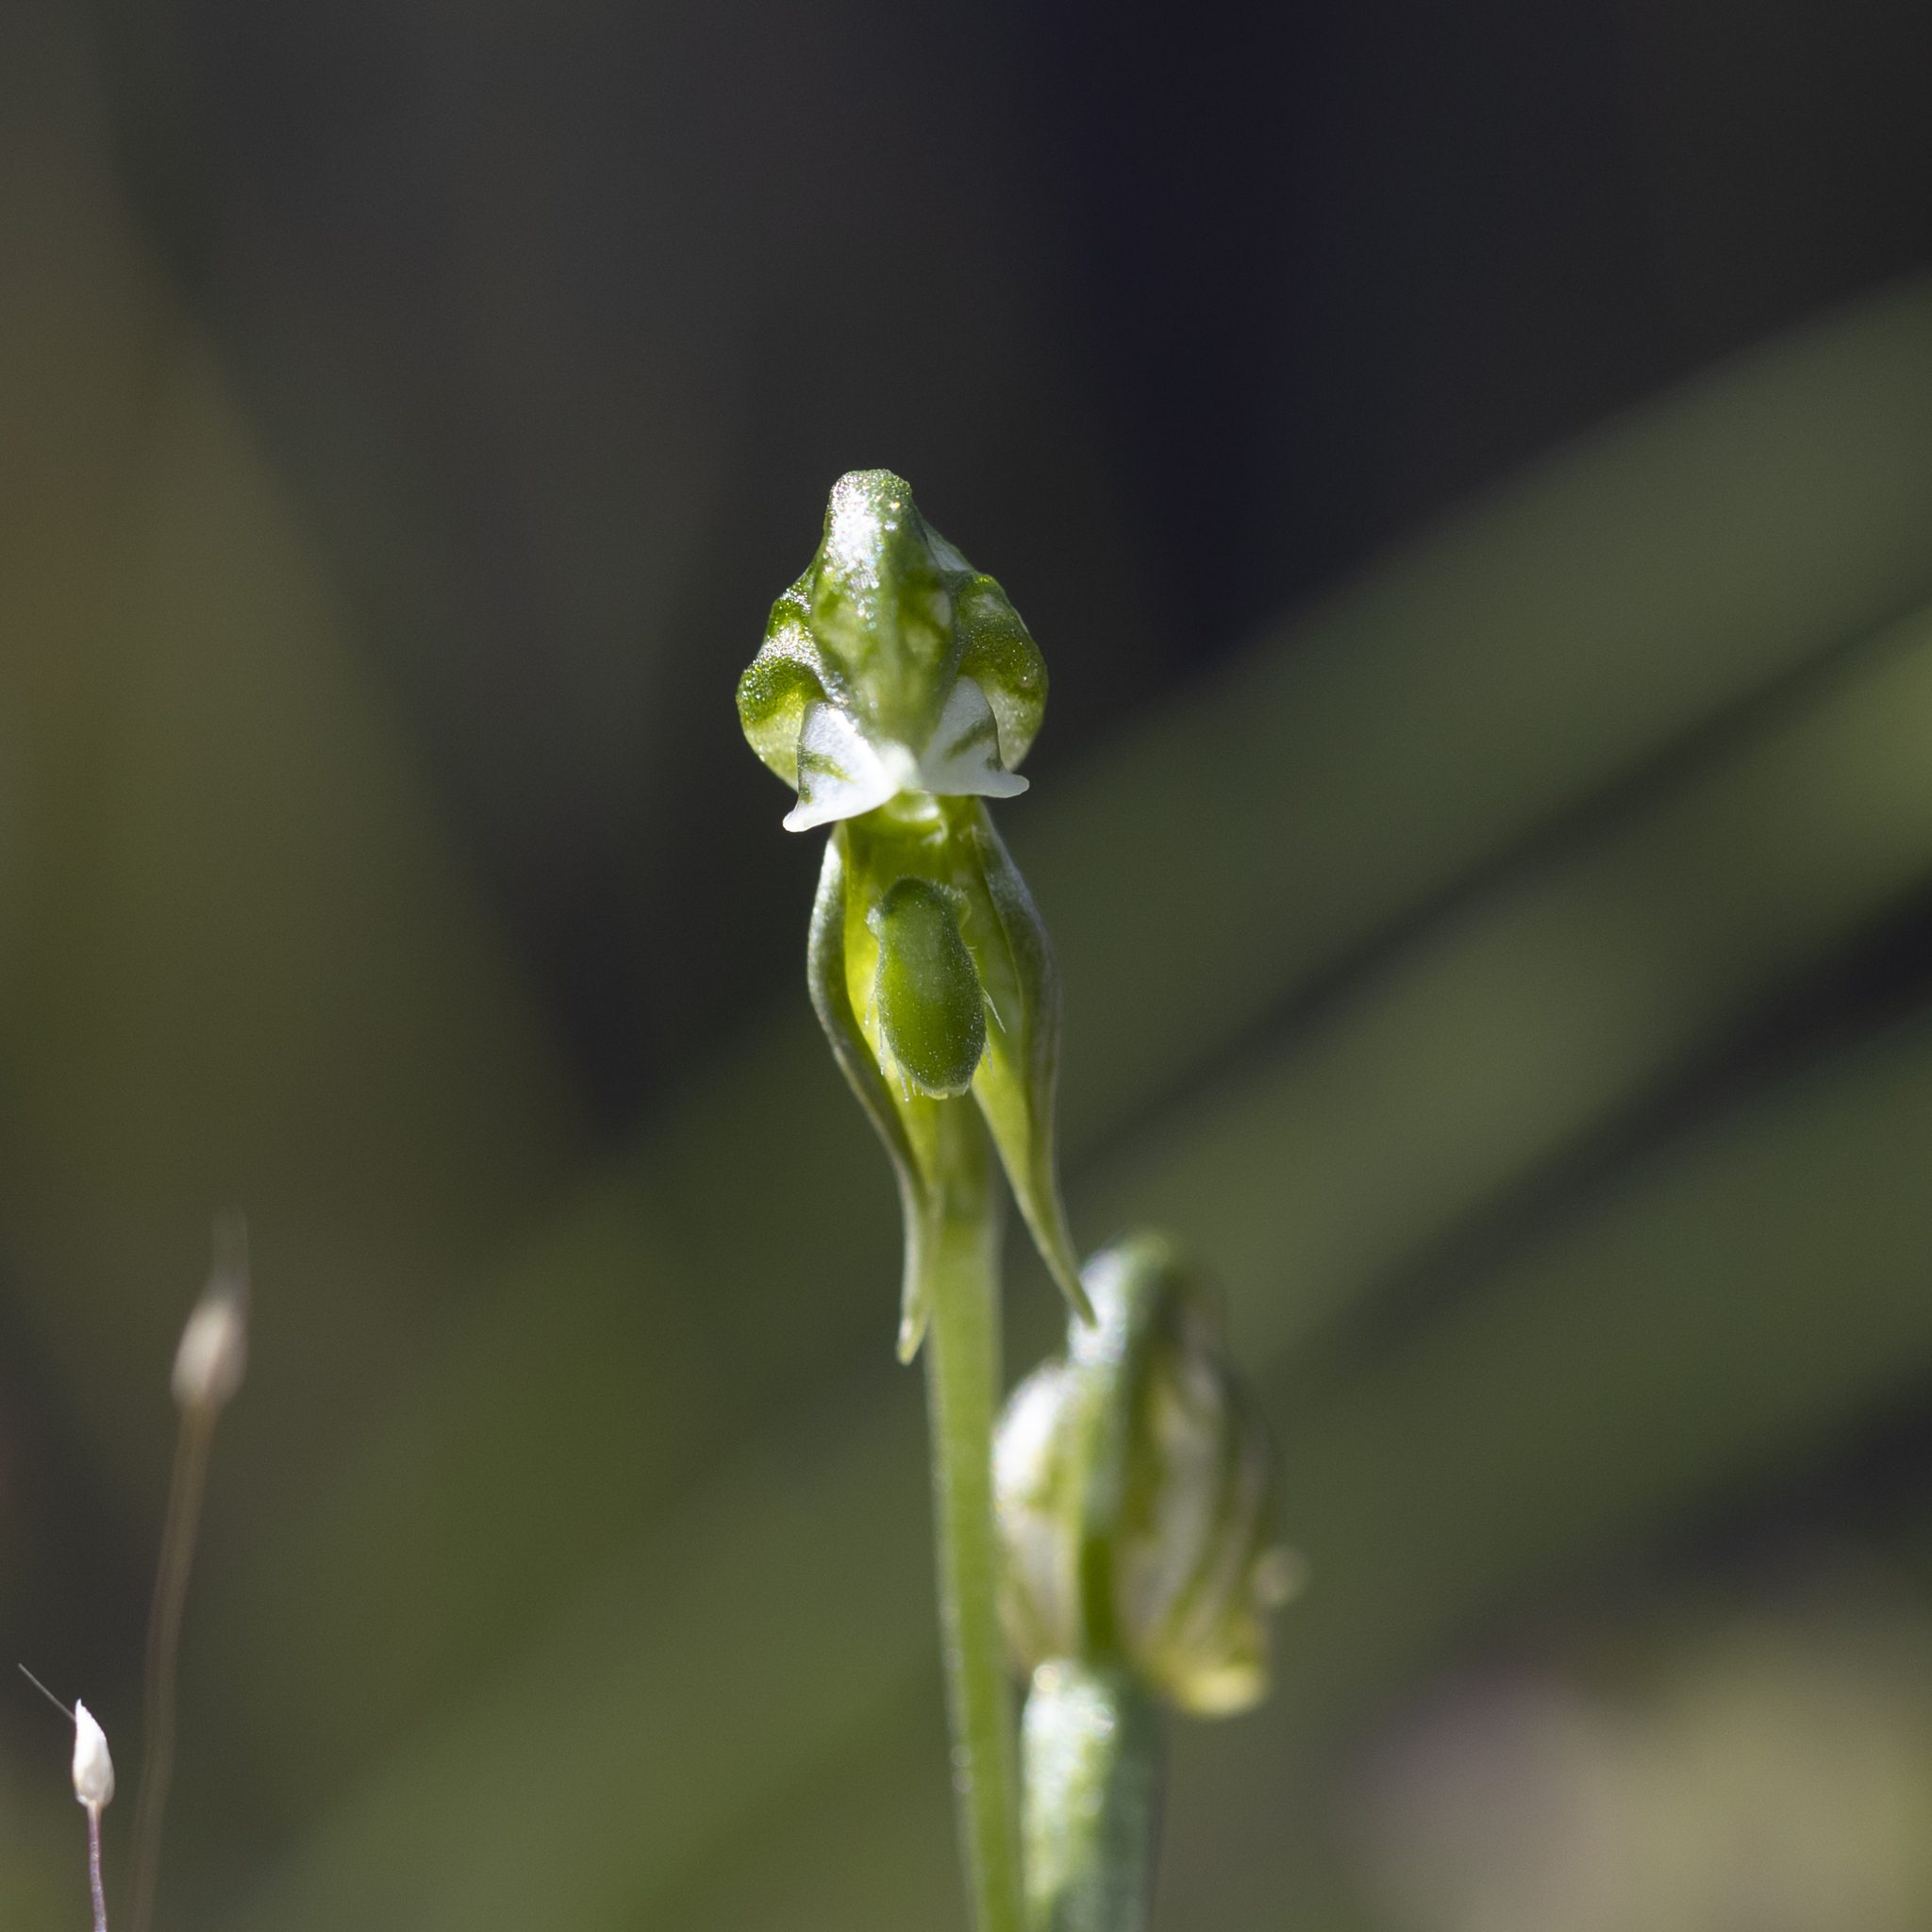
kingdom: Plantae
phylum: Tracheophyta
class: Liliopsida
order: Asparagales
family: Orchidaceae
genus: Pterostylis
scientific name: Pterostylis pusilla
